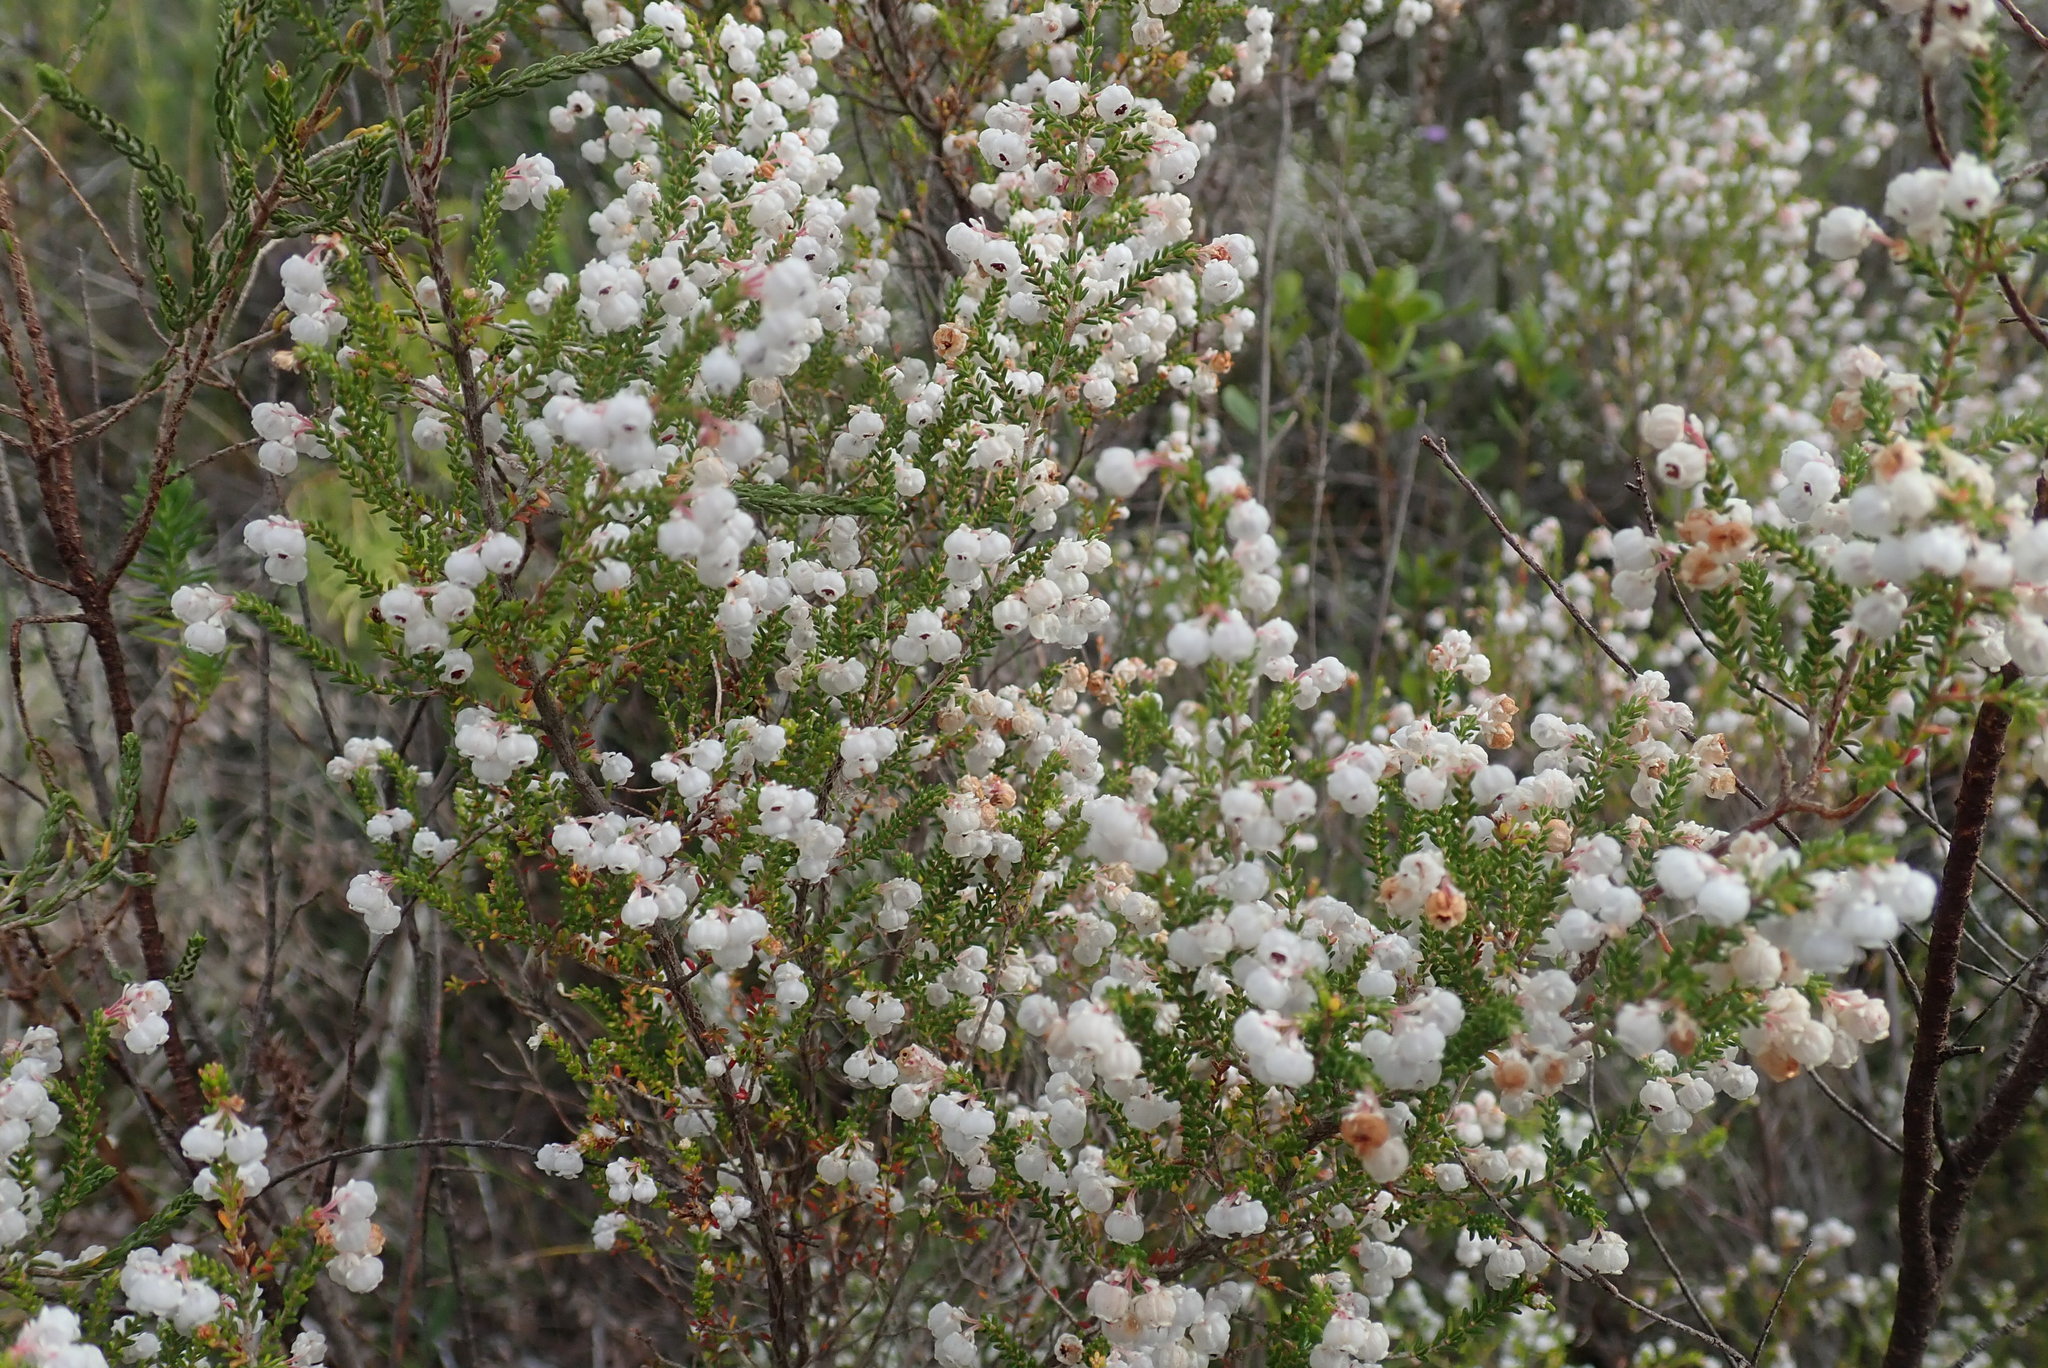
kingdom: Plantae
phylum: Tracheophyta
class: Magnoliopsida
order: Ericales
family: Ericaceae
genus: Erica
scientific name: Erica formosa
